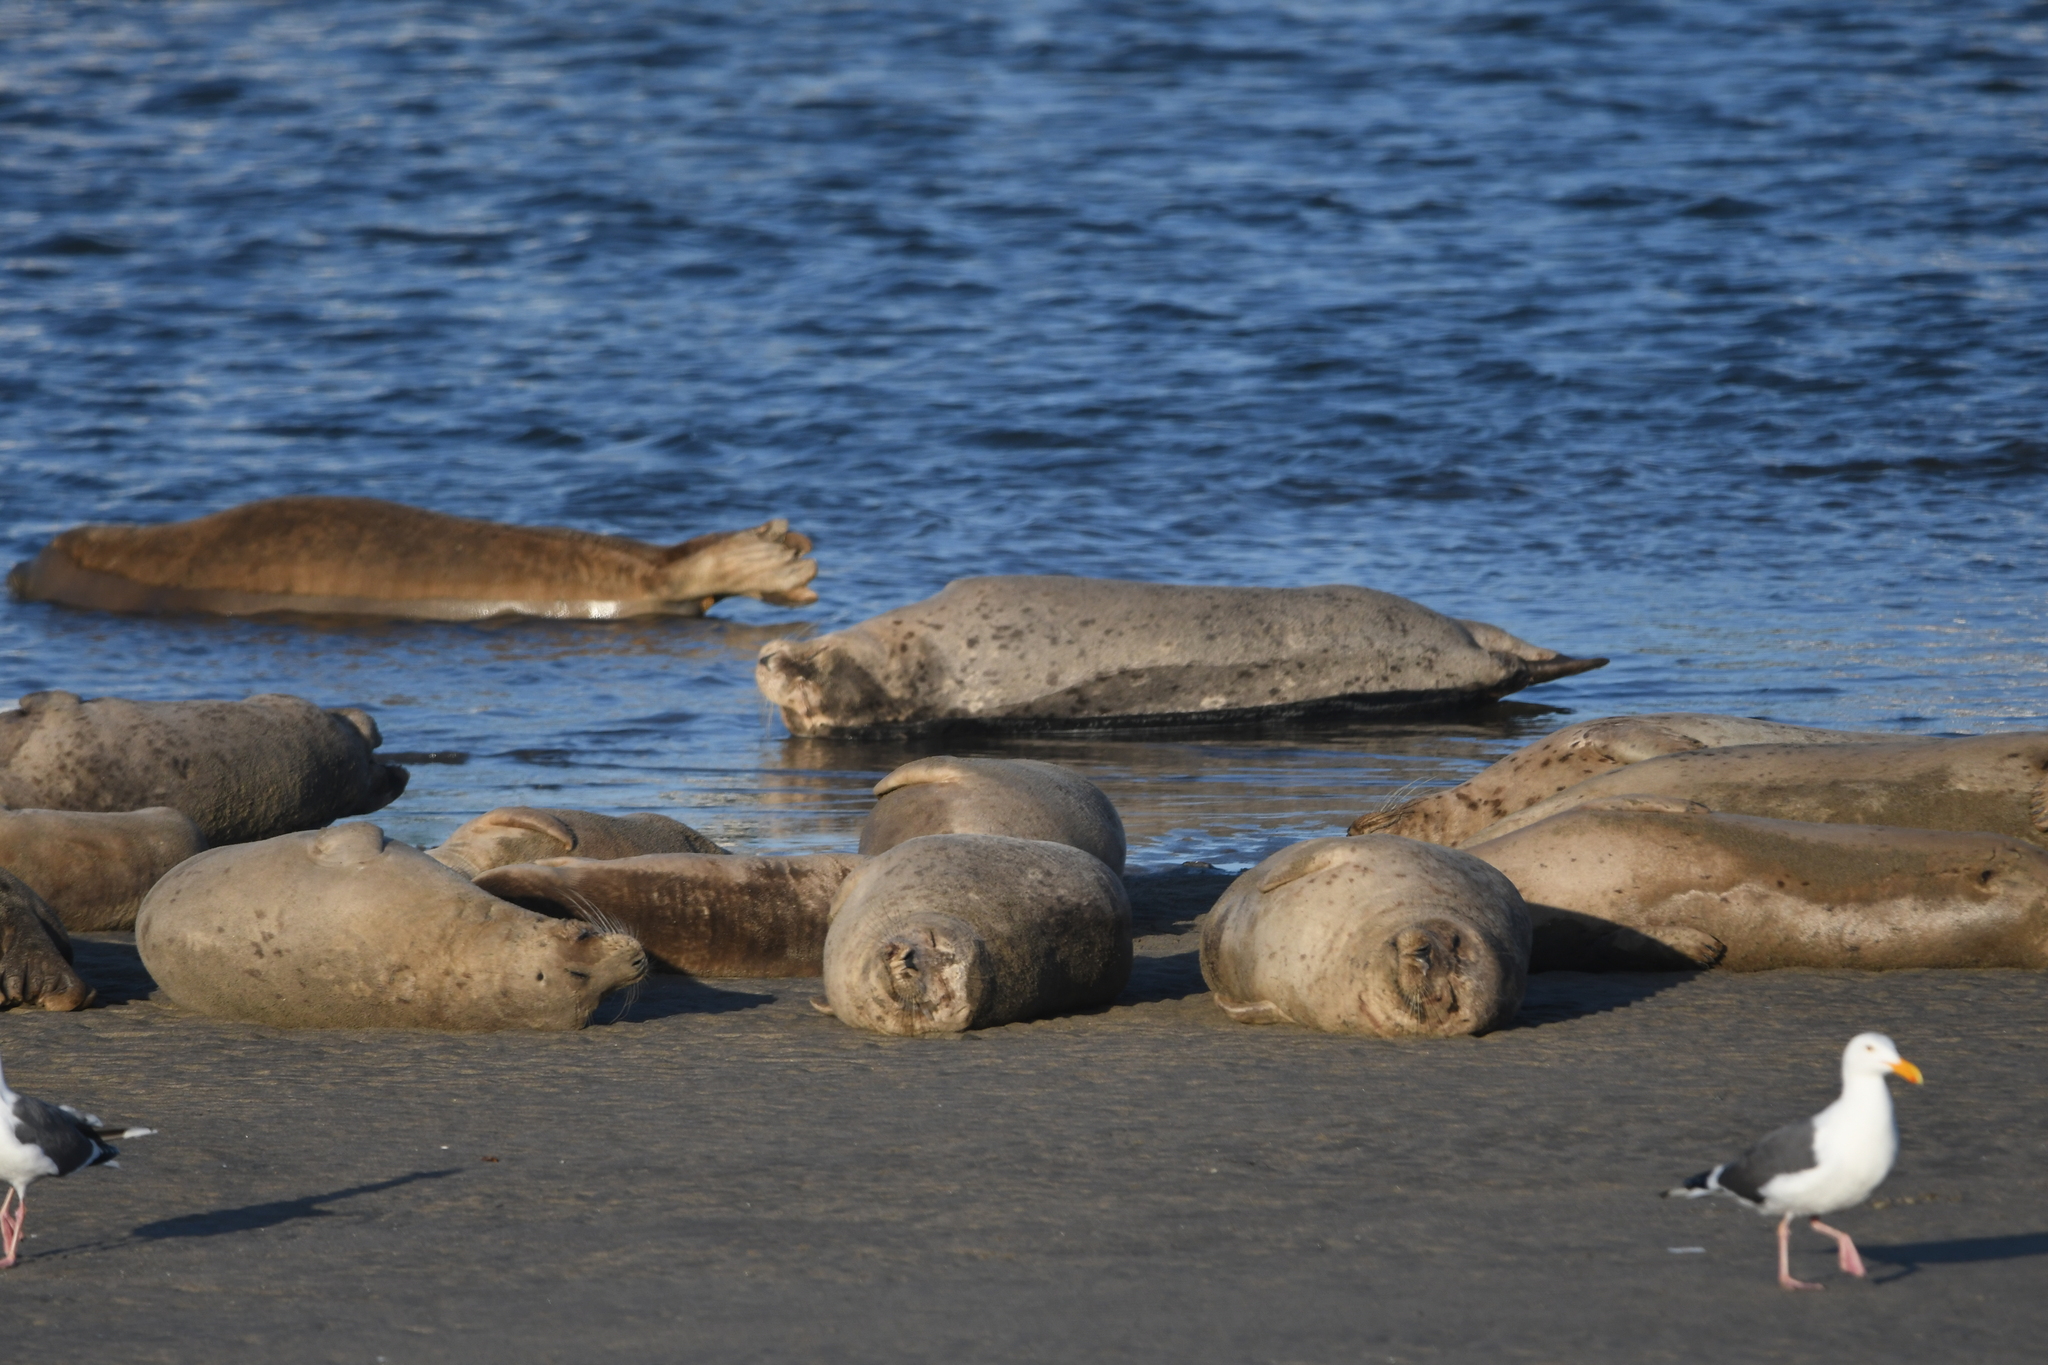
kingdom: Animalia
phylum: Chordata
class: Mammalia
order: Carnivora
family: Phocidae
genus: Phoca
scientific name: Phoca vitulina
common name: Harbor seal
